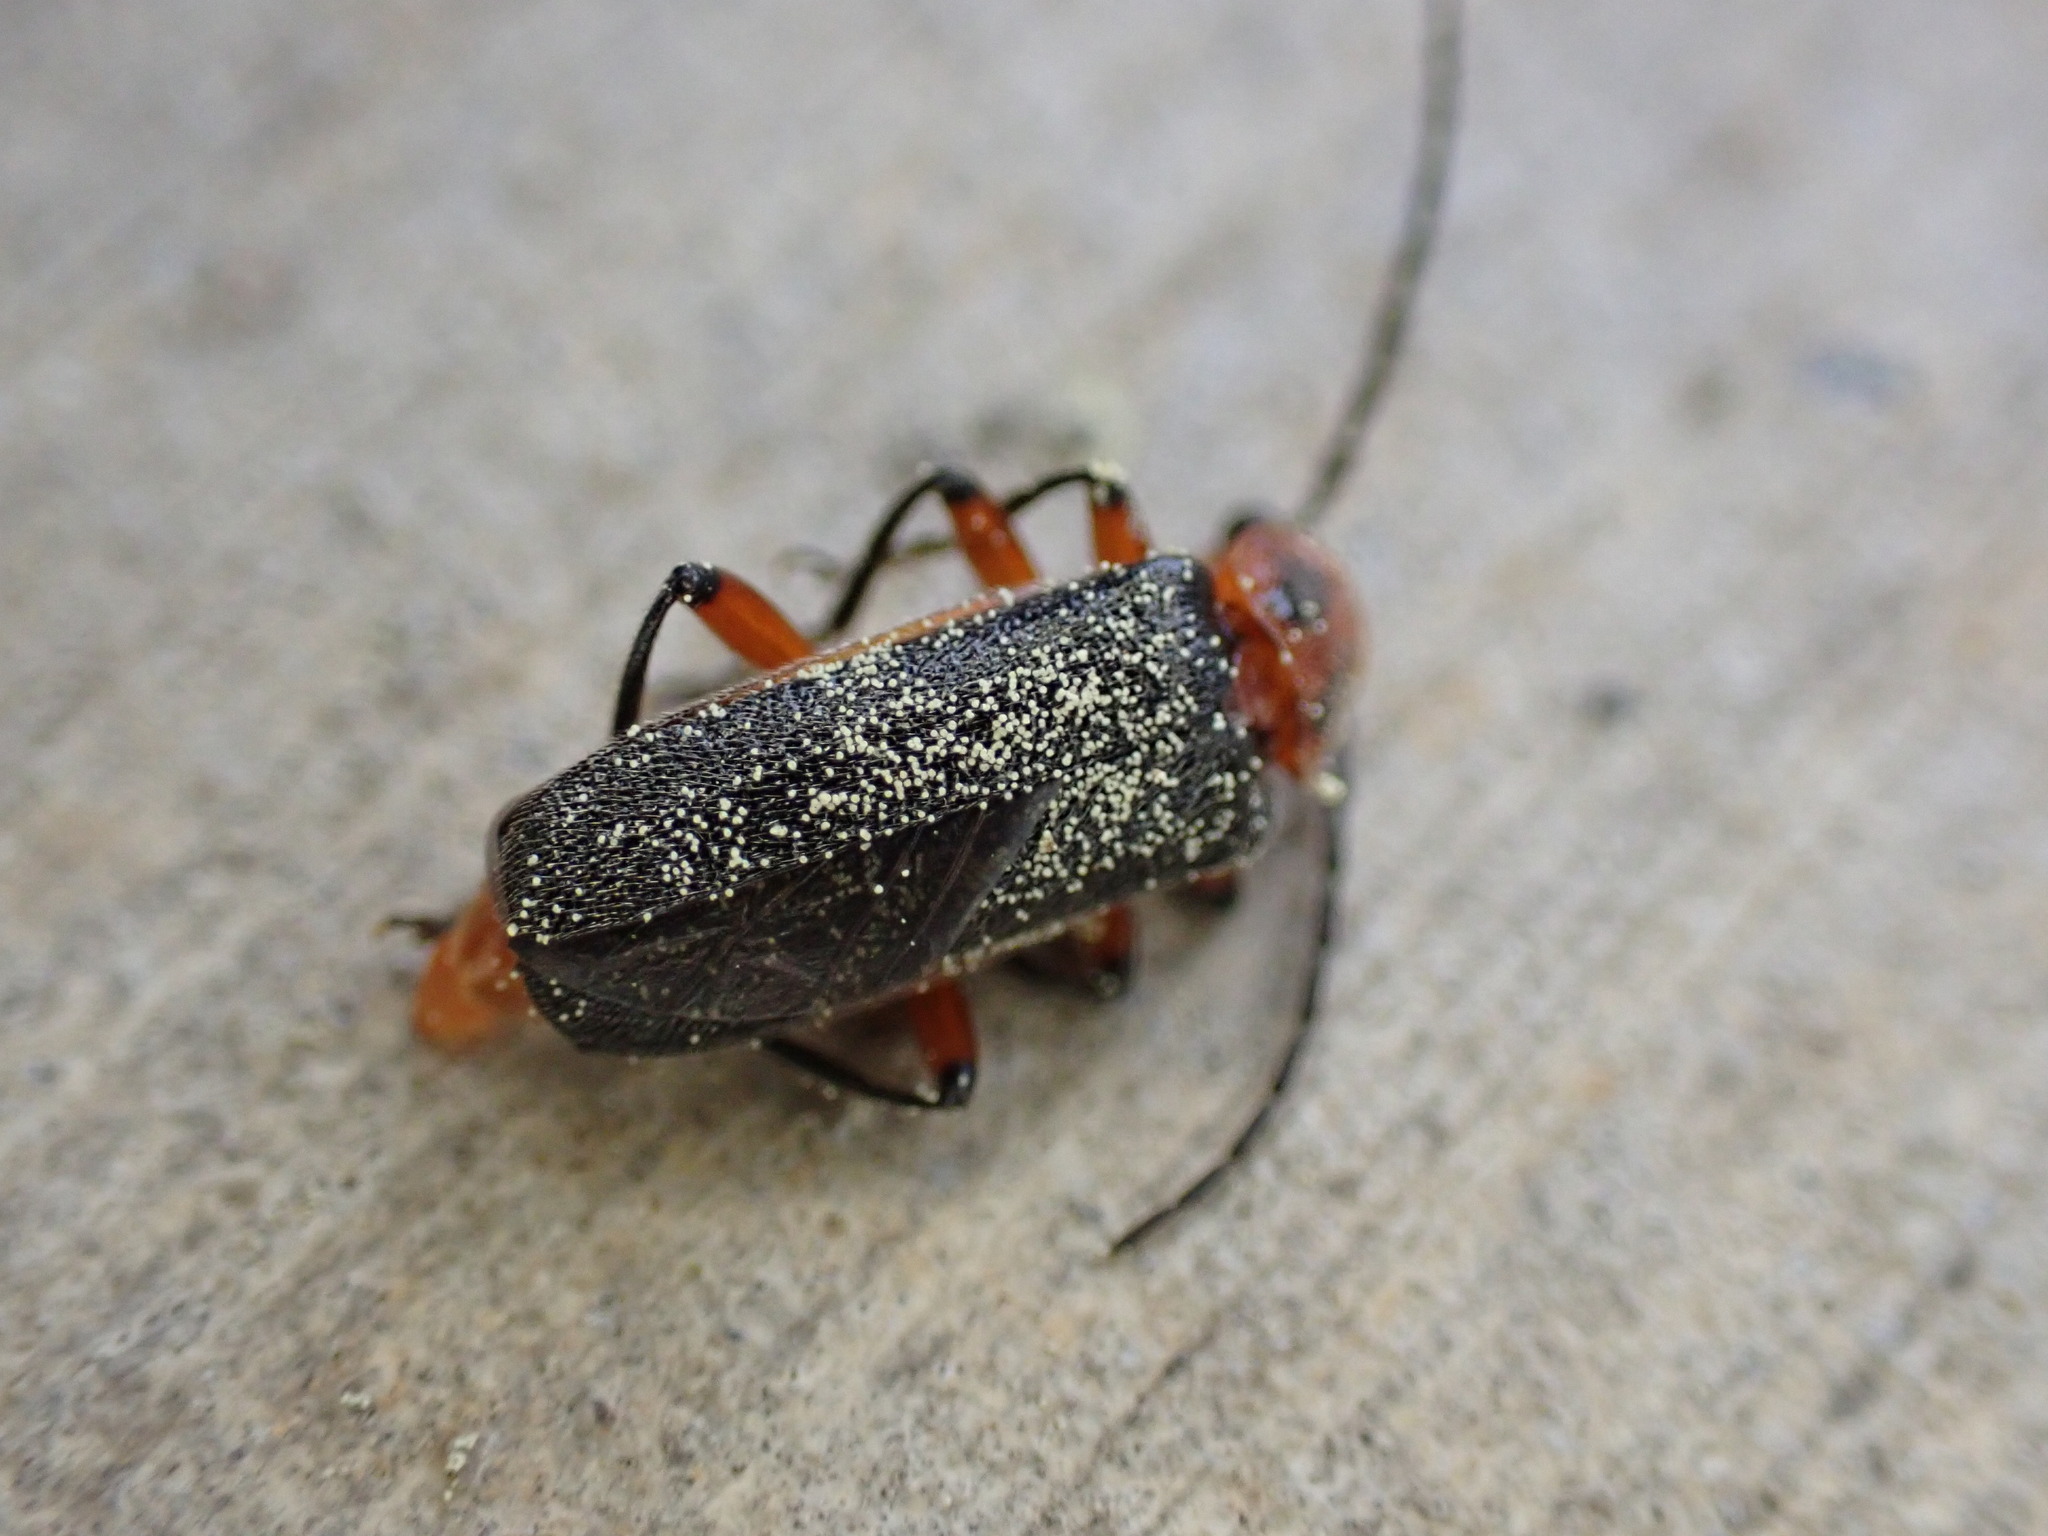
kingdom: Animalia
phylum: Arthropoda
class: Insecta
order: Coleoptera
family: Cantharidae
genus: Atalantycha
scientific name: Atalantycha bilineata
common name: Two-lined leatherwing
